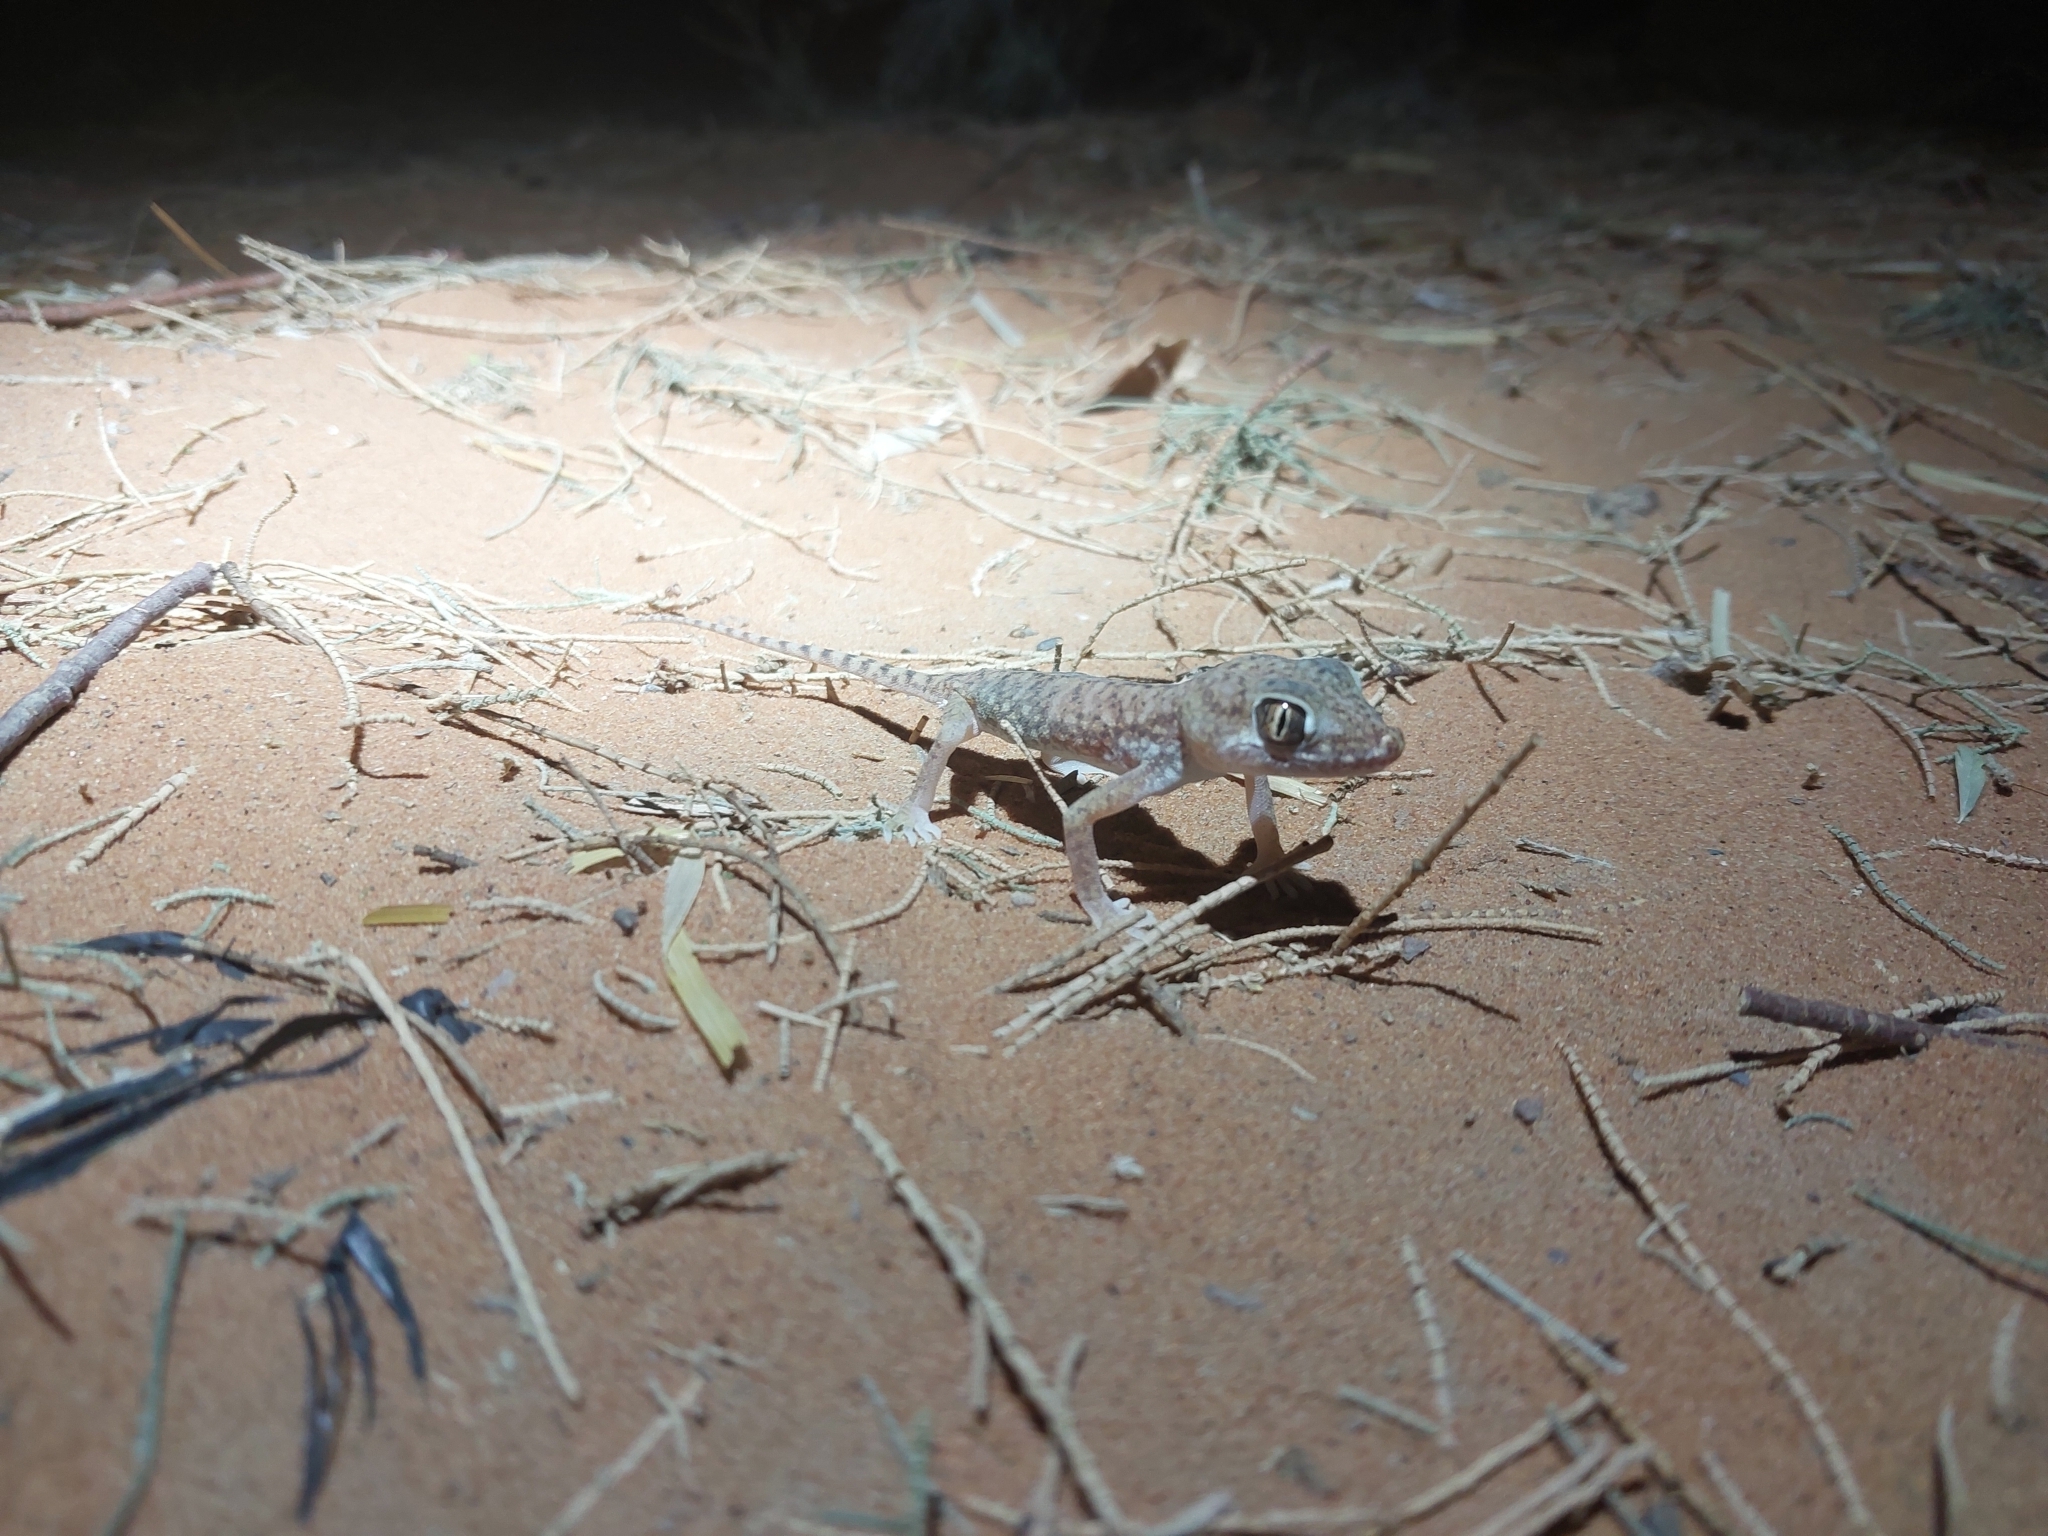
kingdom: Animalia
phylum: Chordata
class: Squamata
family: Gekkonidae
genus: Stenodactylus
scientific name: Stenodactylus petrii
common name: Anderson's short-fingered gecko
